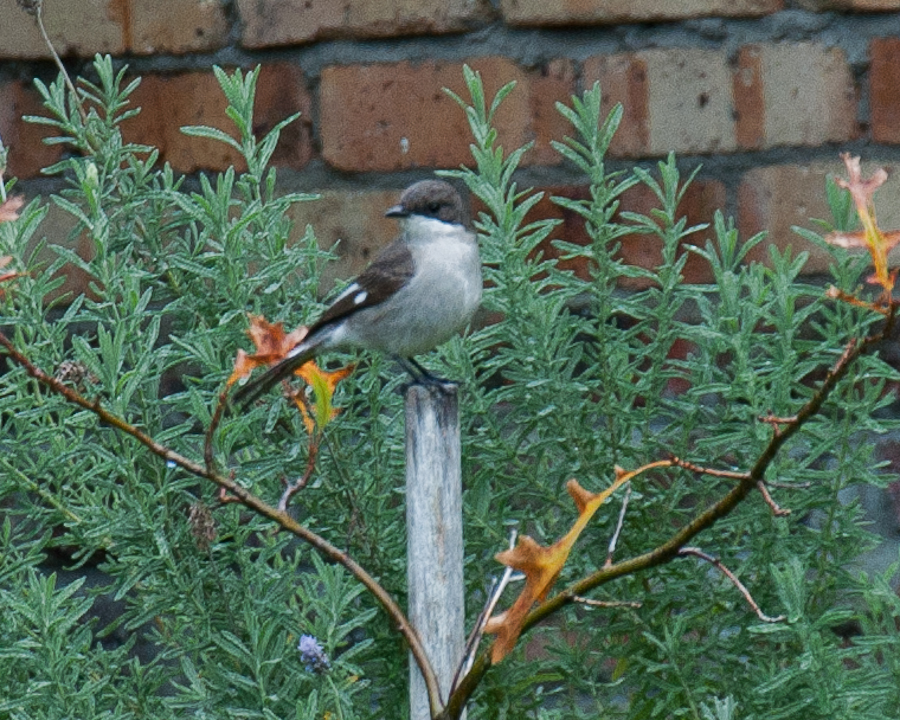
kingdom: Animalia
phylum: Chordata
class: Aves
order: Passeriformes
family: Muscicapidae
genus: Sigelus
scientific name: Sigelus silens
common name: Fiscal flycatcher
